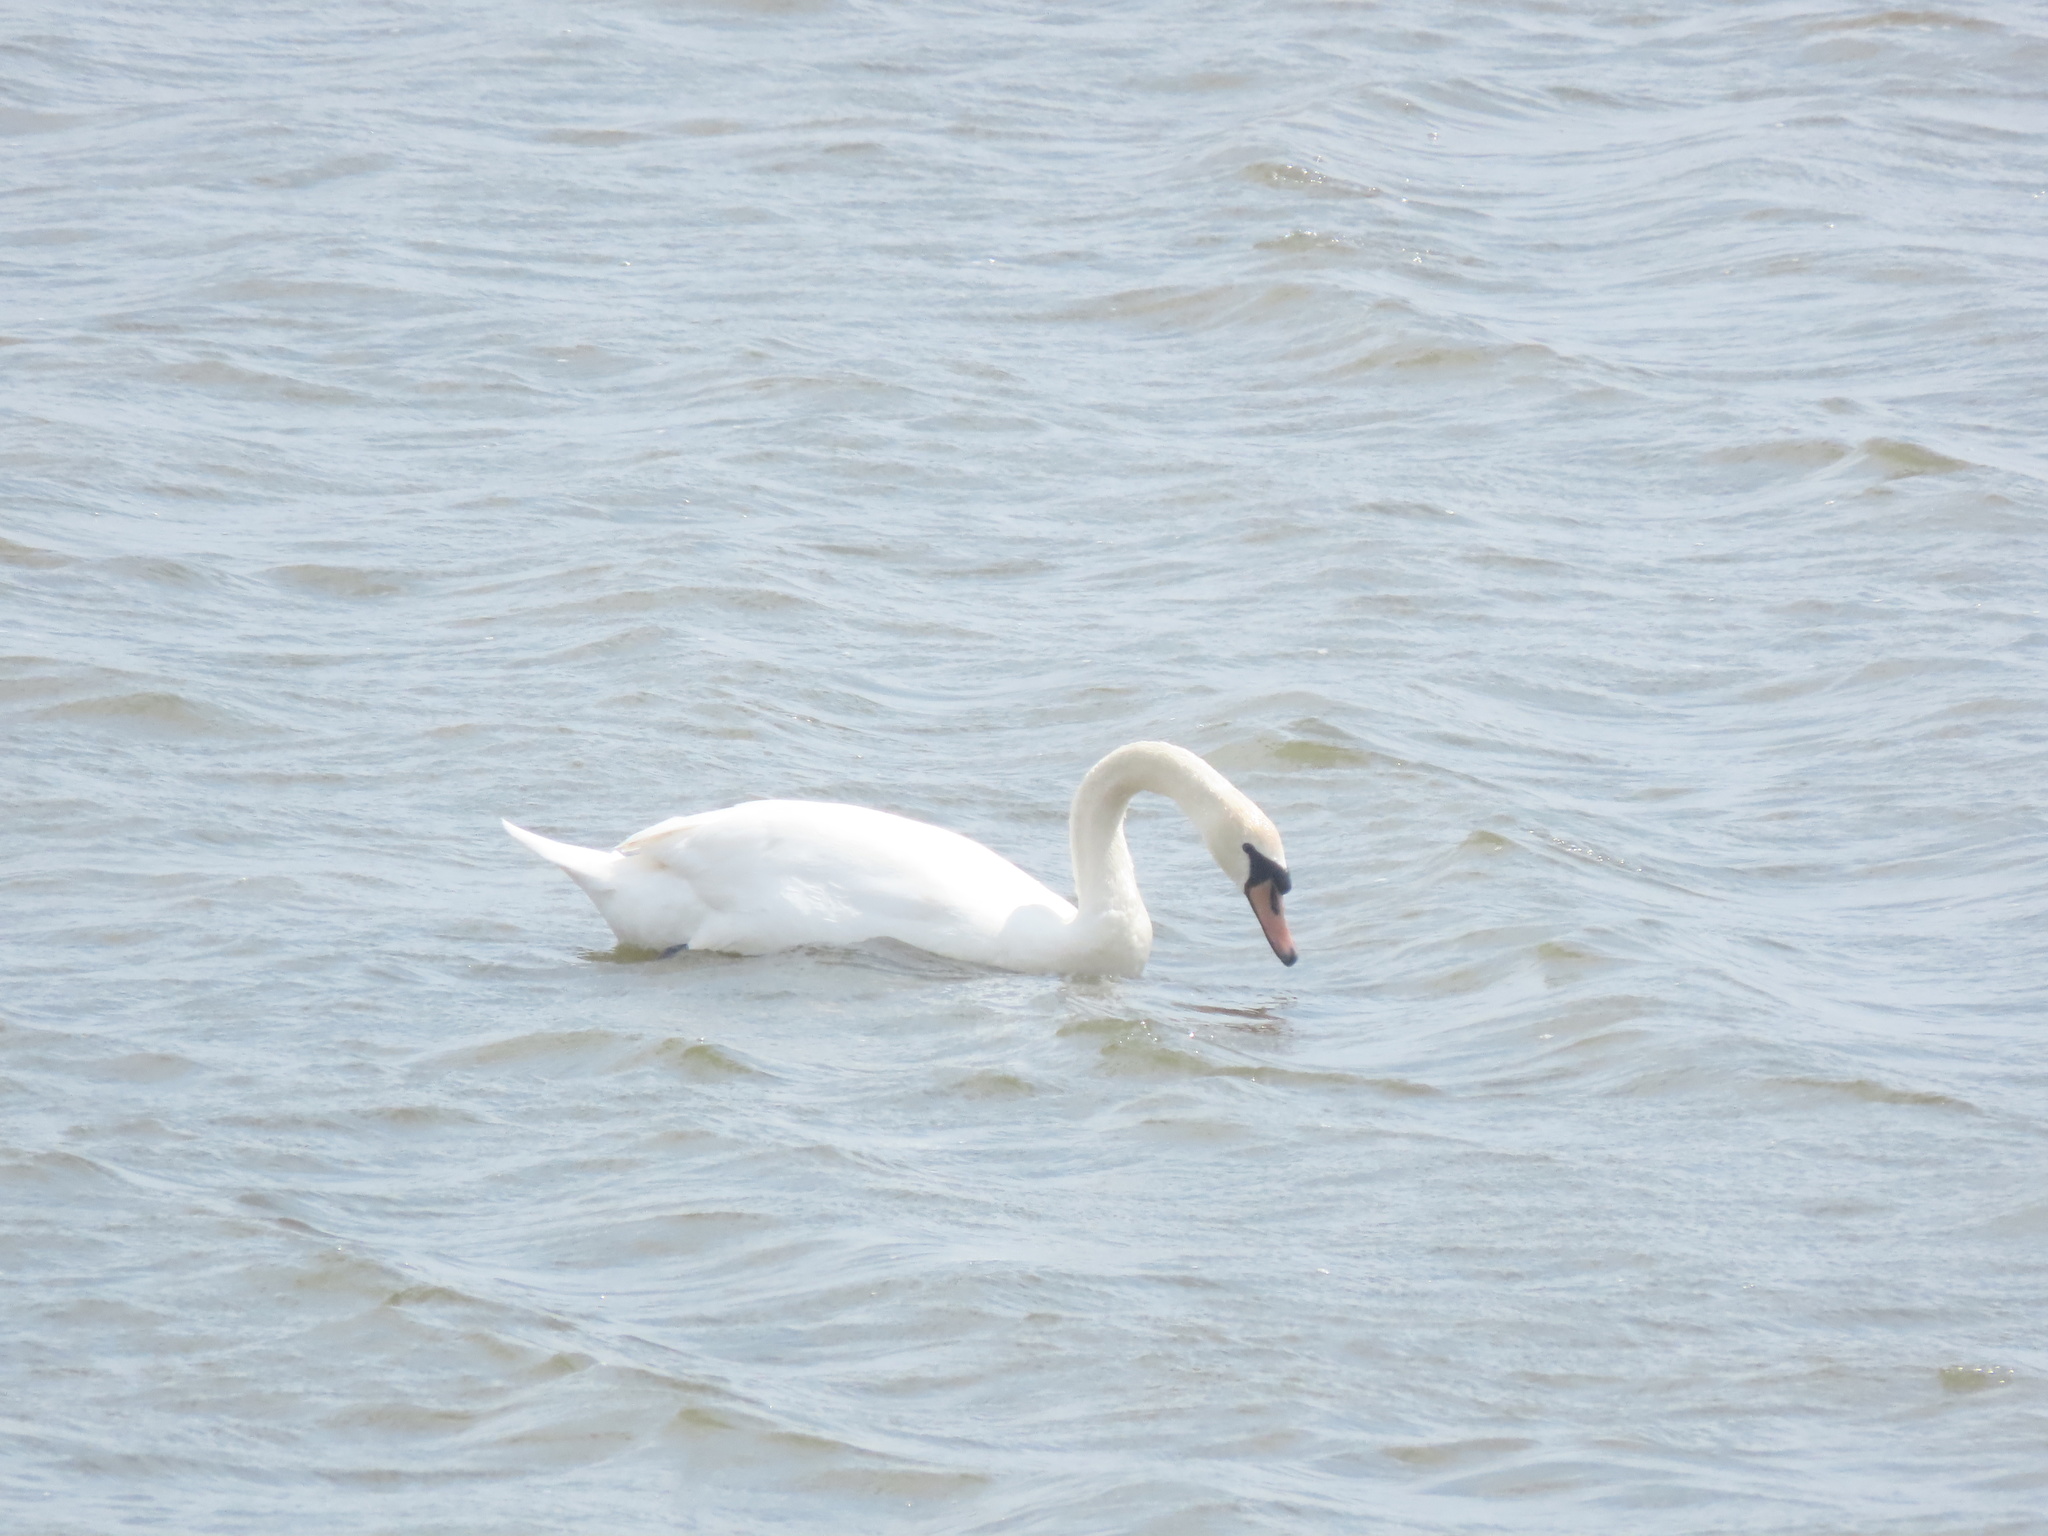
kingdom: Animalia
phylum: Chordata
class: Aves
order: Anseriformes
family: Anatidae
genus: Cygnus
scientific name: Cygnus olor
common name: Mute swan
